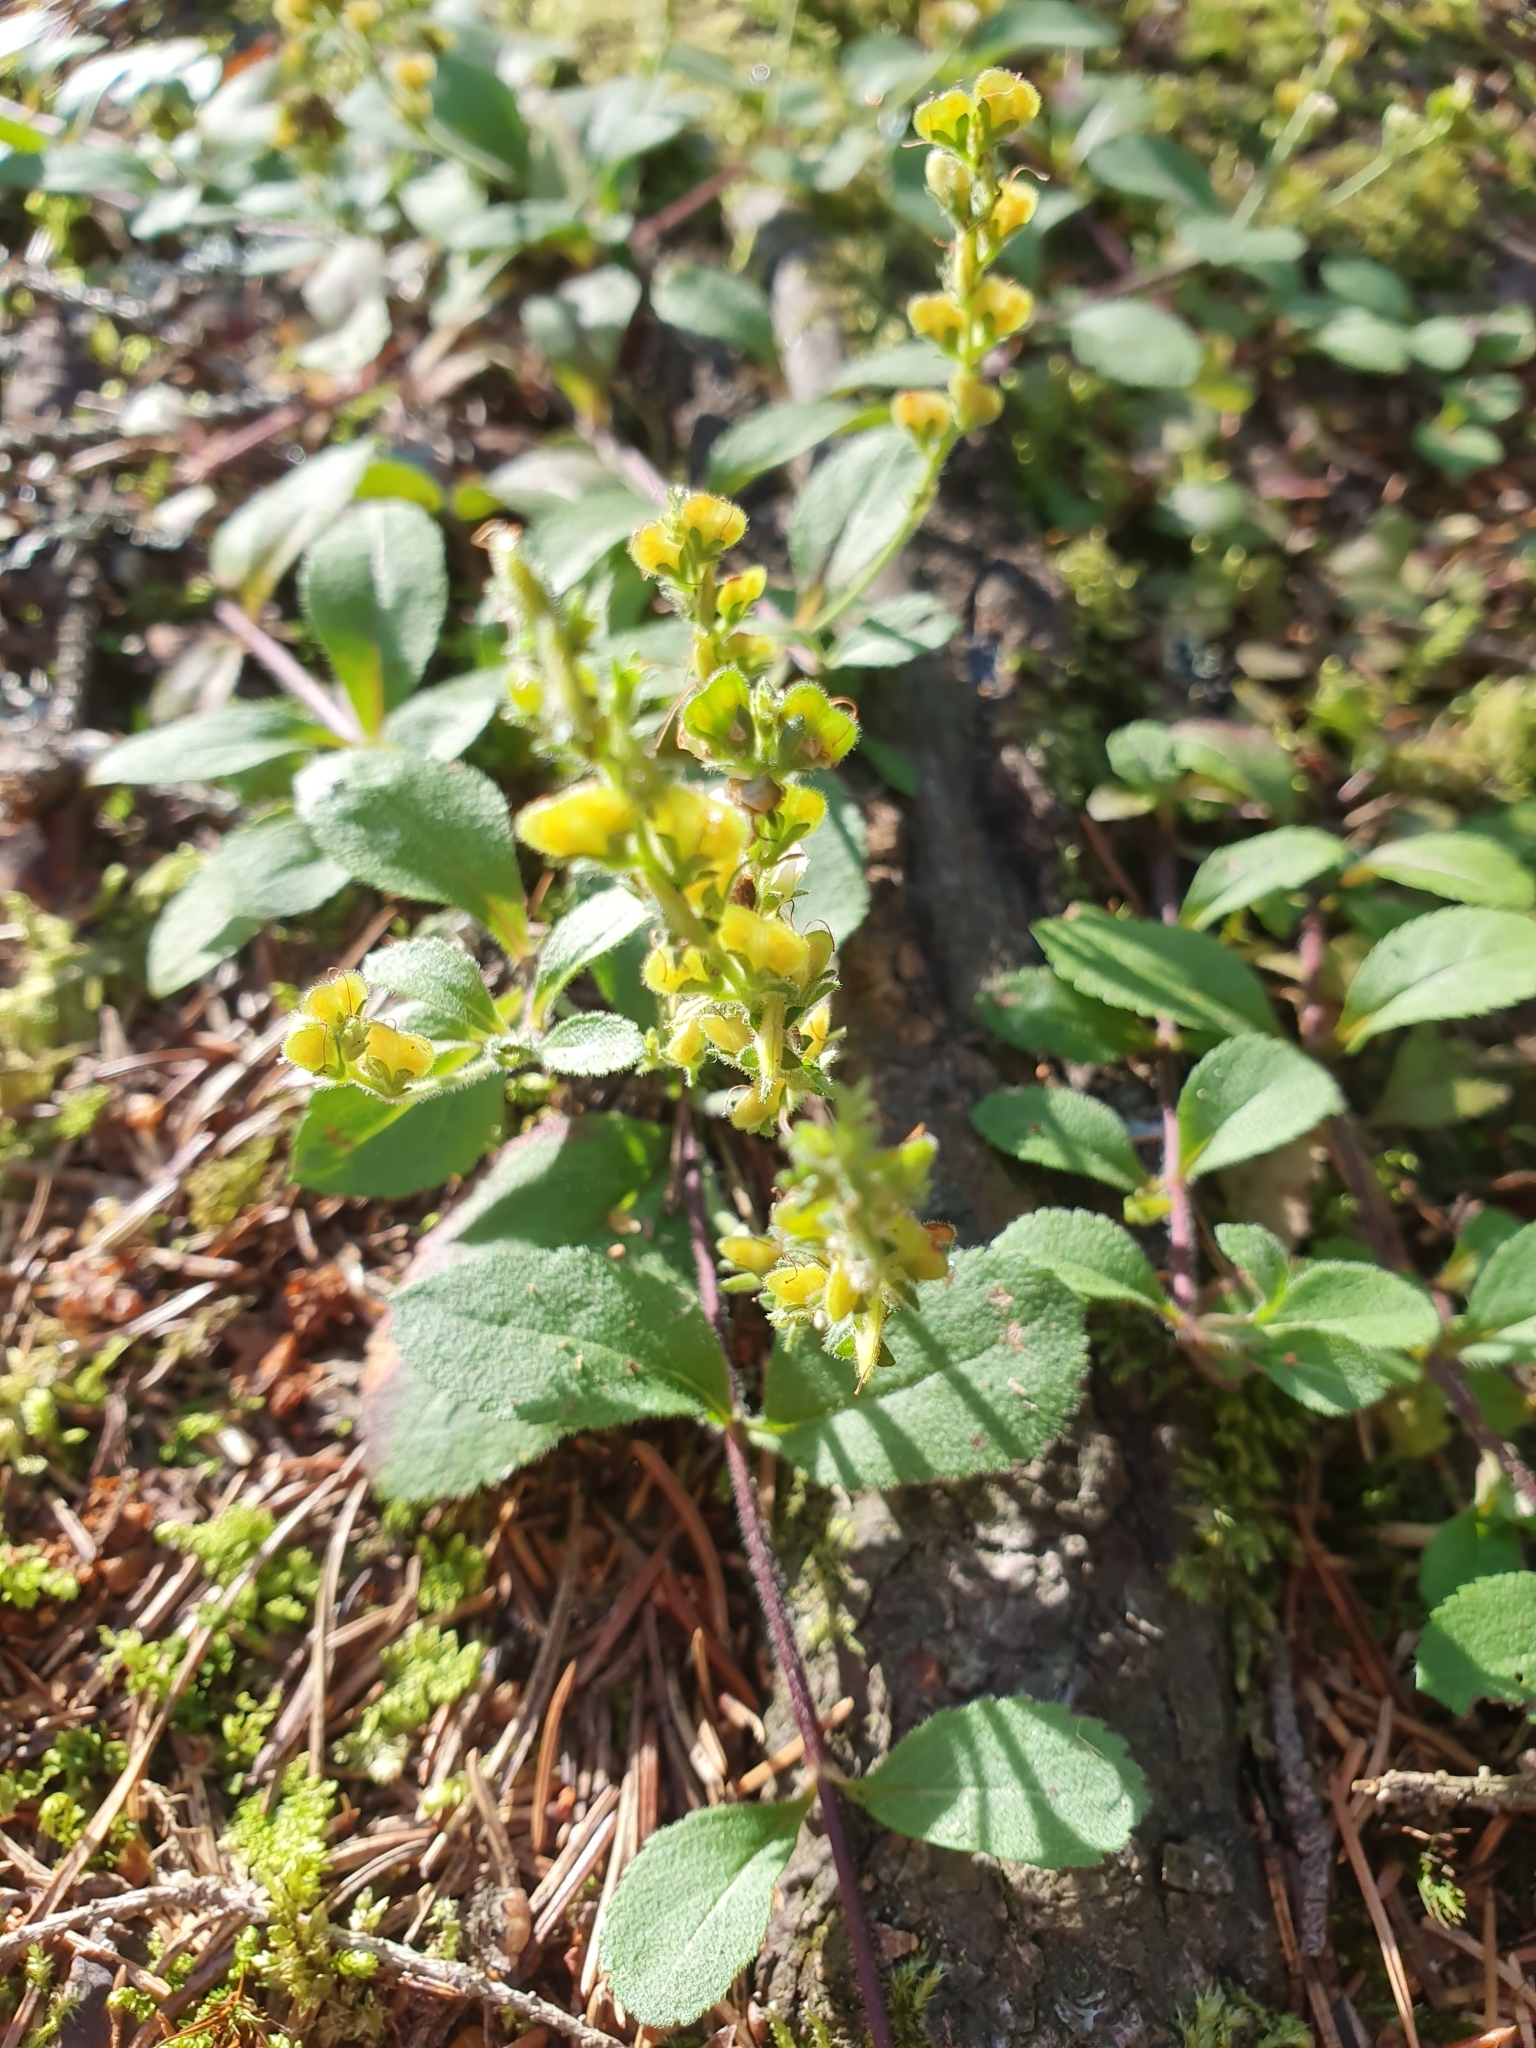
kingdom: Plantae
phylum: Tracheophyta
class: Magnoliopsida
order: Lamiales
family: Plantaginaceae
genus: Veronica
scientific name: Veronica officinalis
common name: Common speedwell
